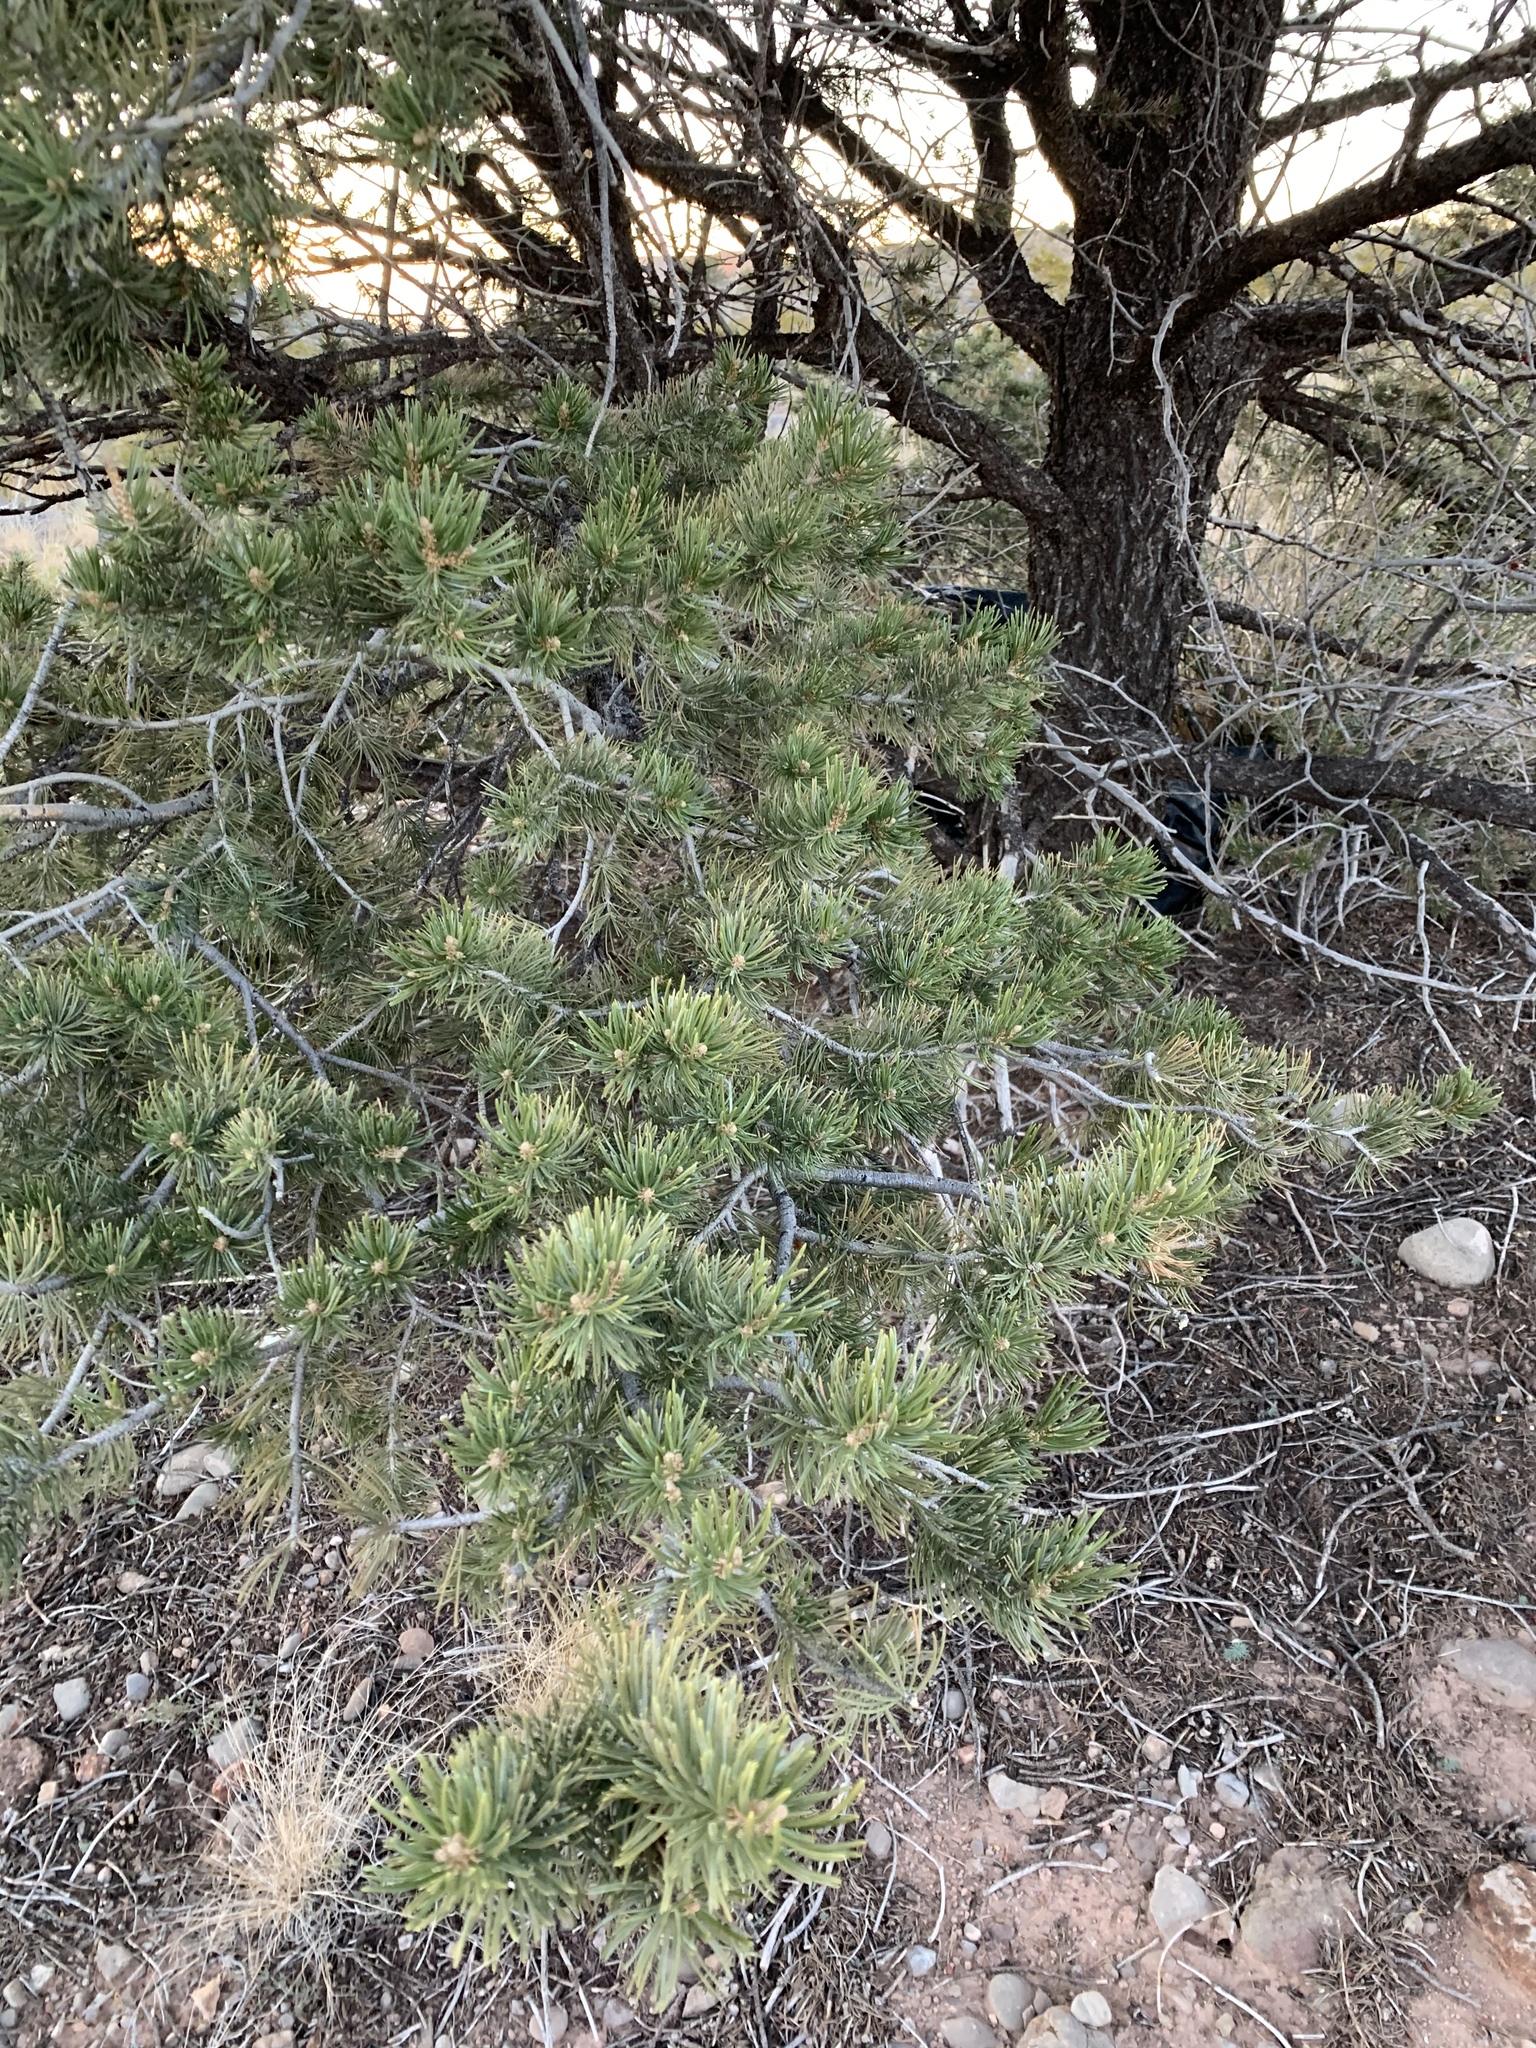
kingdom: Plantae
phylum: Tracheophyta
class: Pinopsida
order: Pinales
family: Pinaceae
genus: Pinus
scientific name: Pinus edulis
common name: Colorado pinyon
